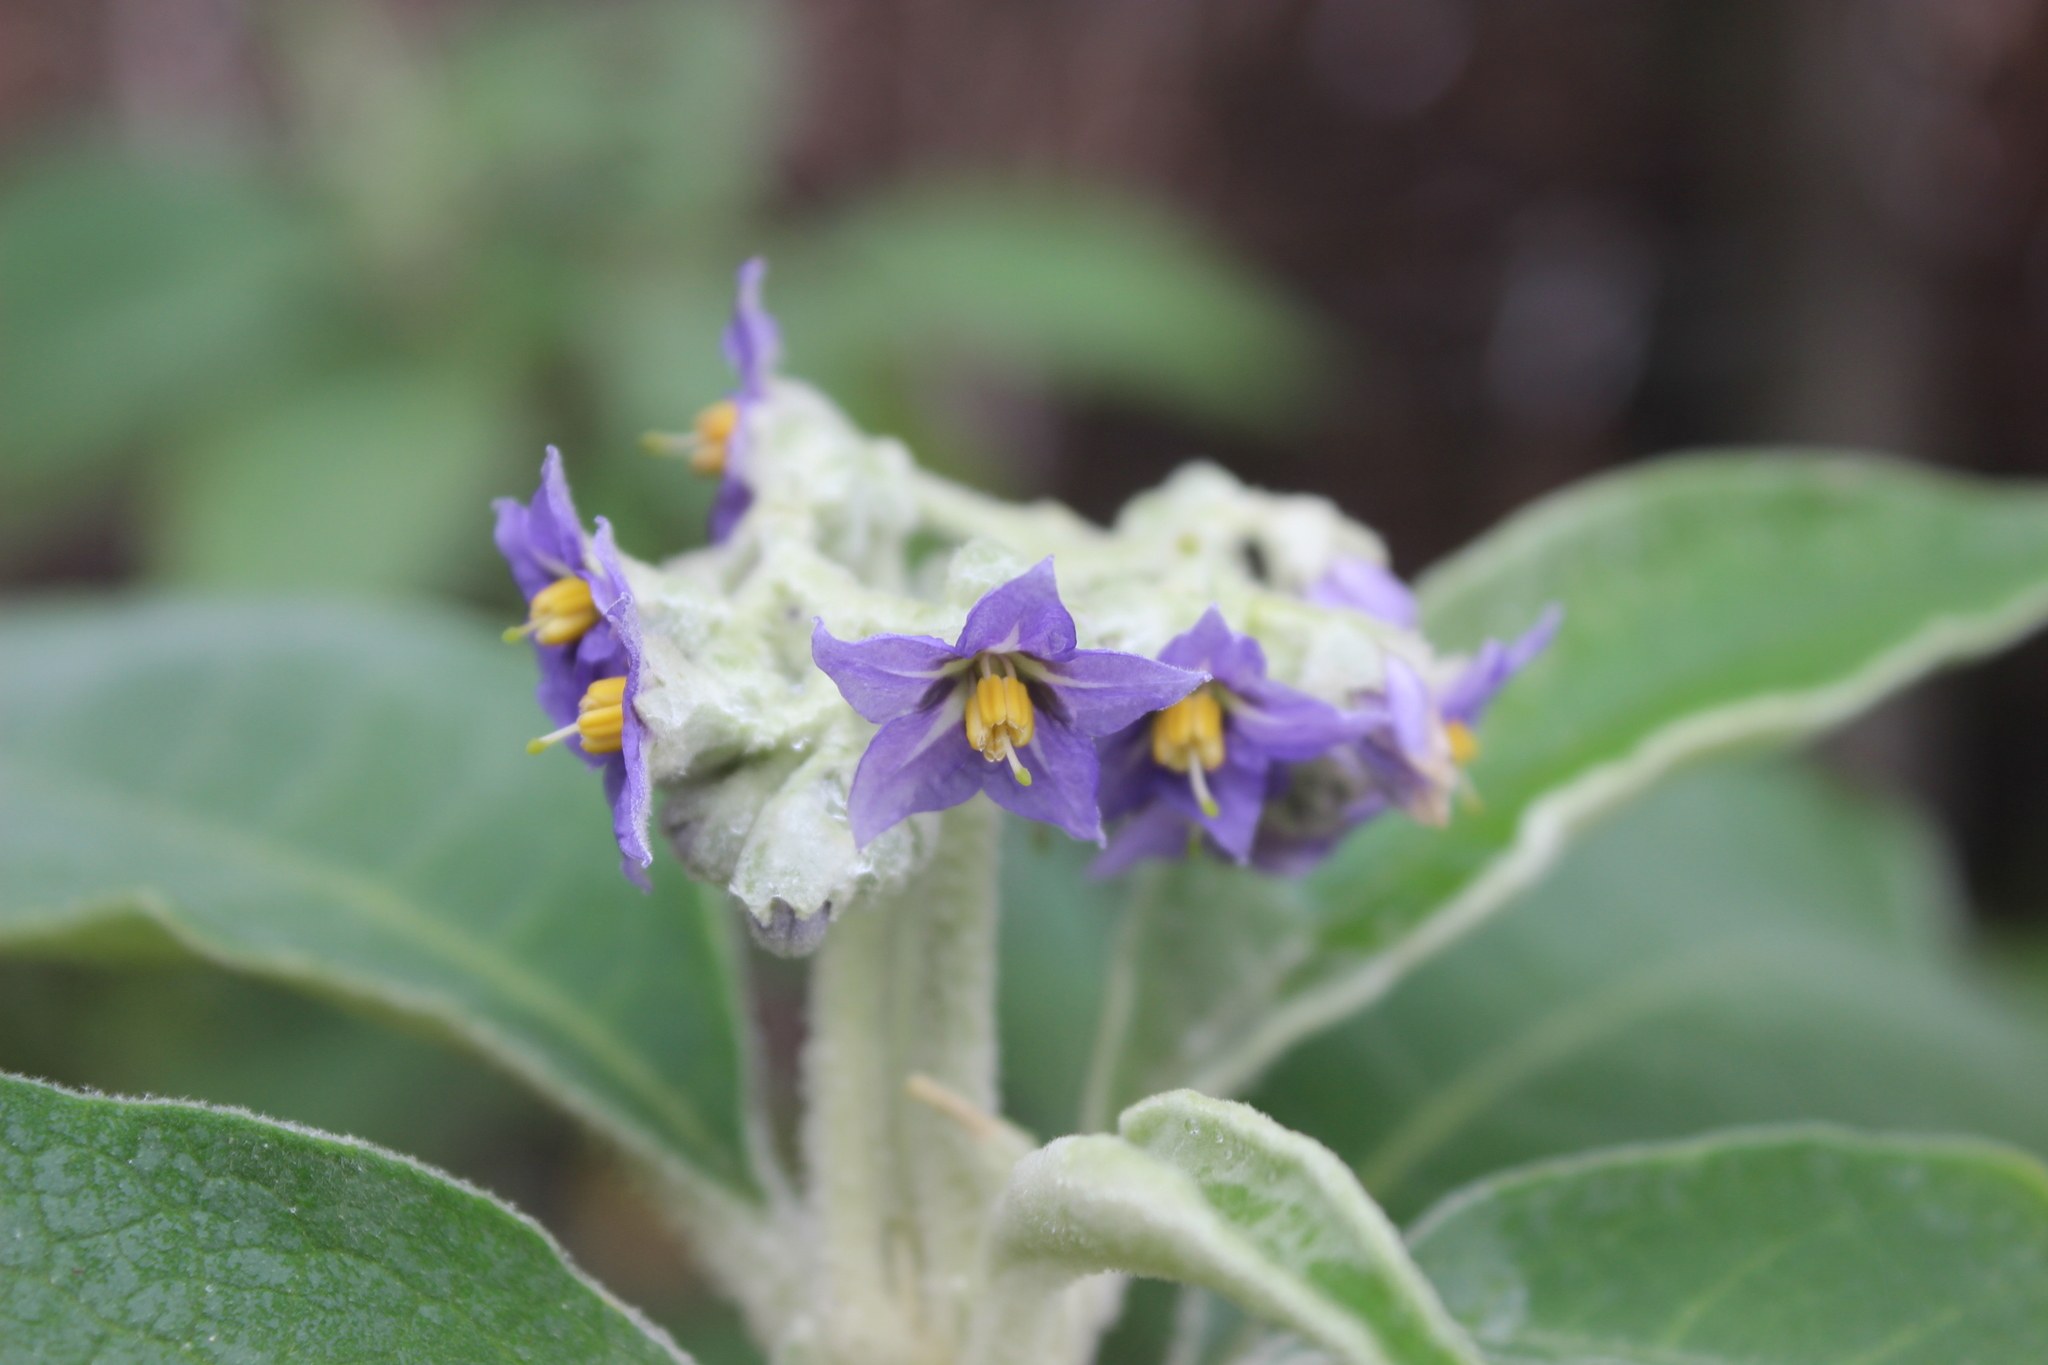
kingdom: Plantae
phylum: Tracheophyta
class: Magnoliopsida
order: Solanales
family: Solanaceae
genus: Solanum
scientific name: Solanum mauritianum
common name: Earleaf nightshade
